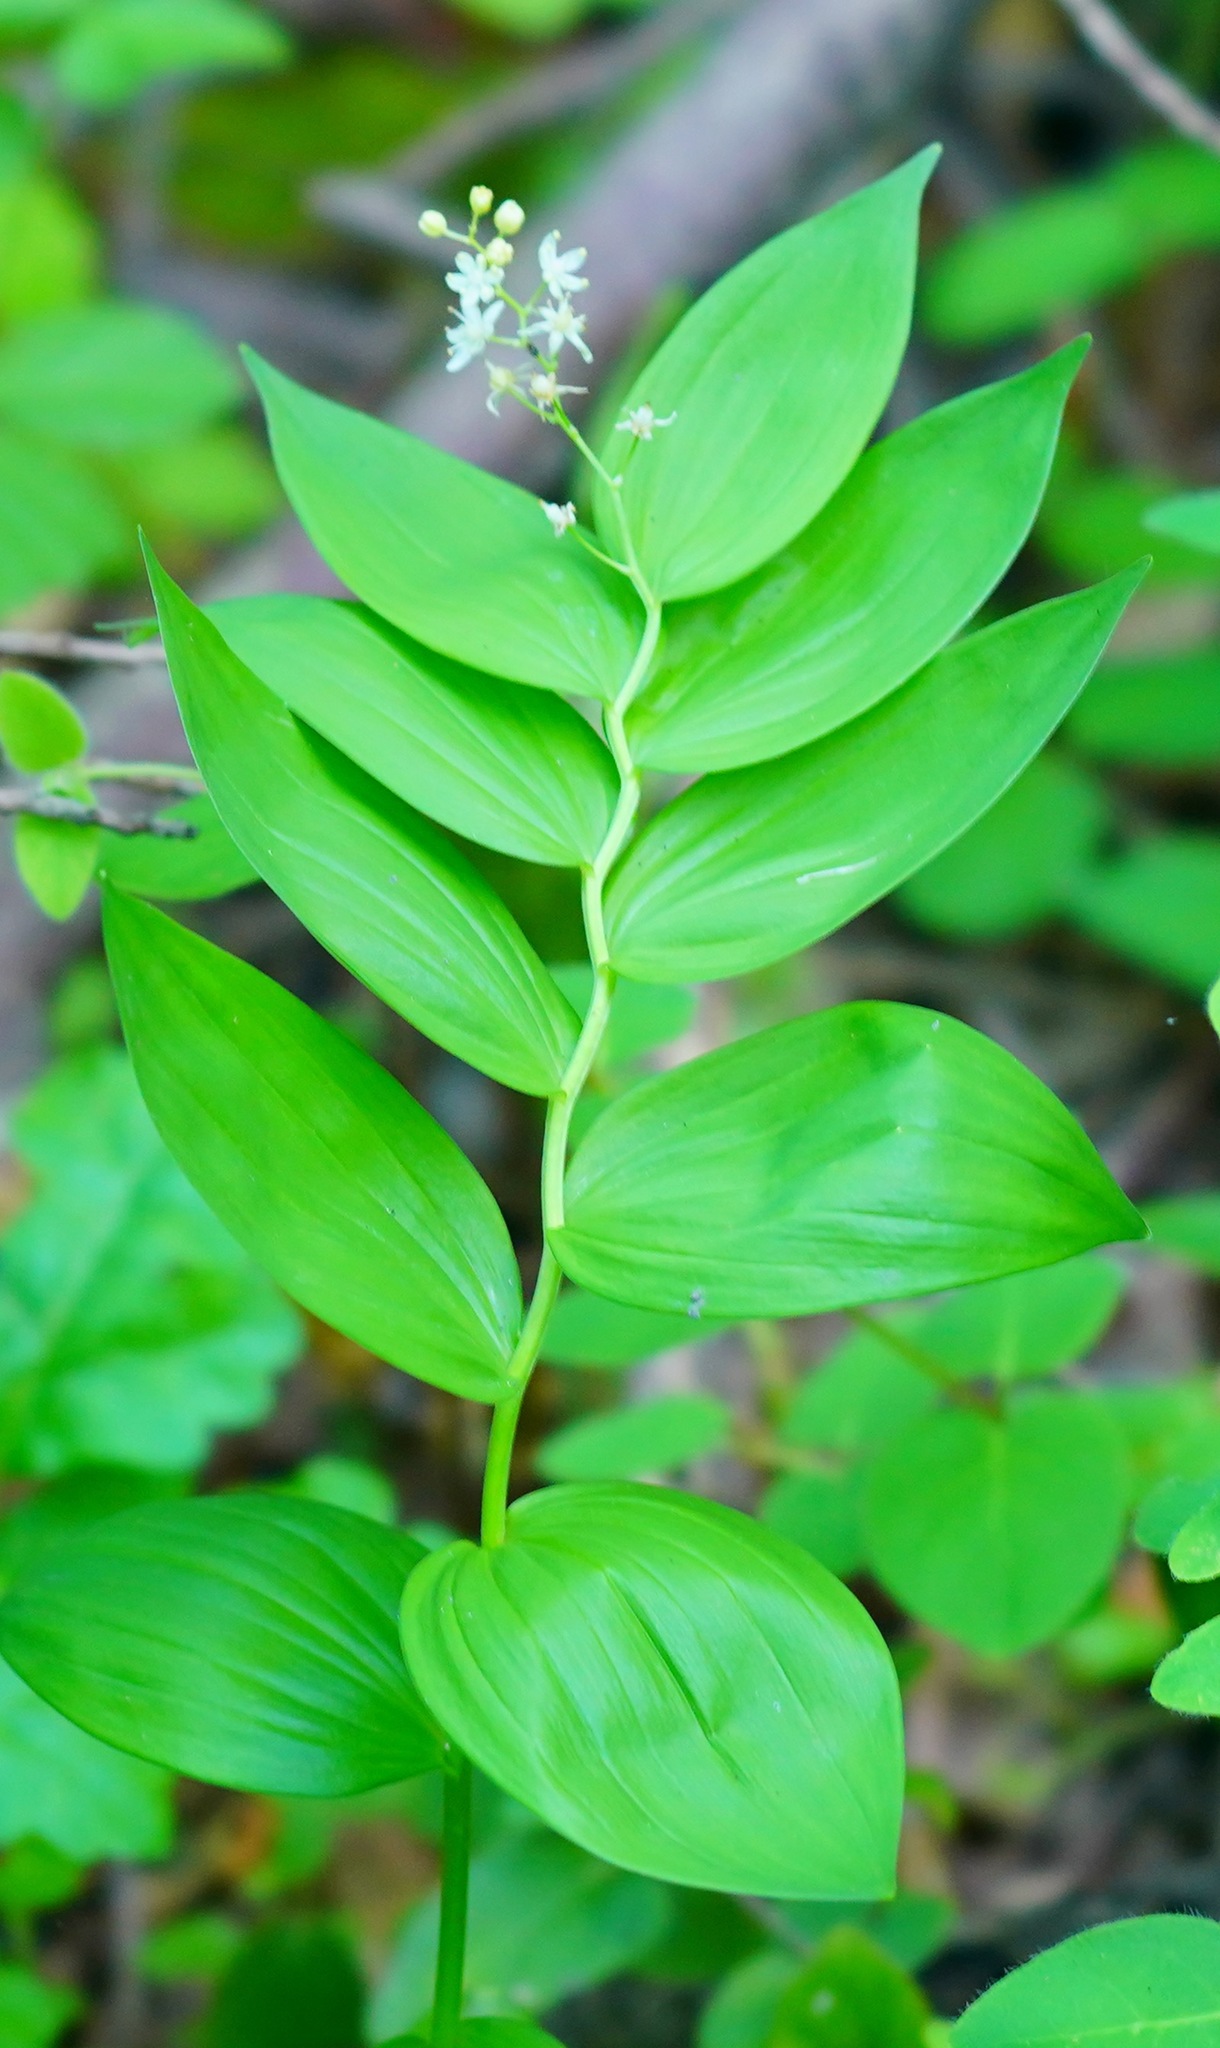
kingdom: Plantae
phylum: Tracheophyta
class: Liliopsida
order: Asparagales
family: Asparagaceae
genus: Maianthemum
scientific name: Maianthemum stellatum
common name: Little false solomon's seal
